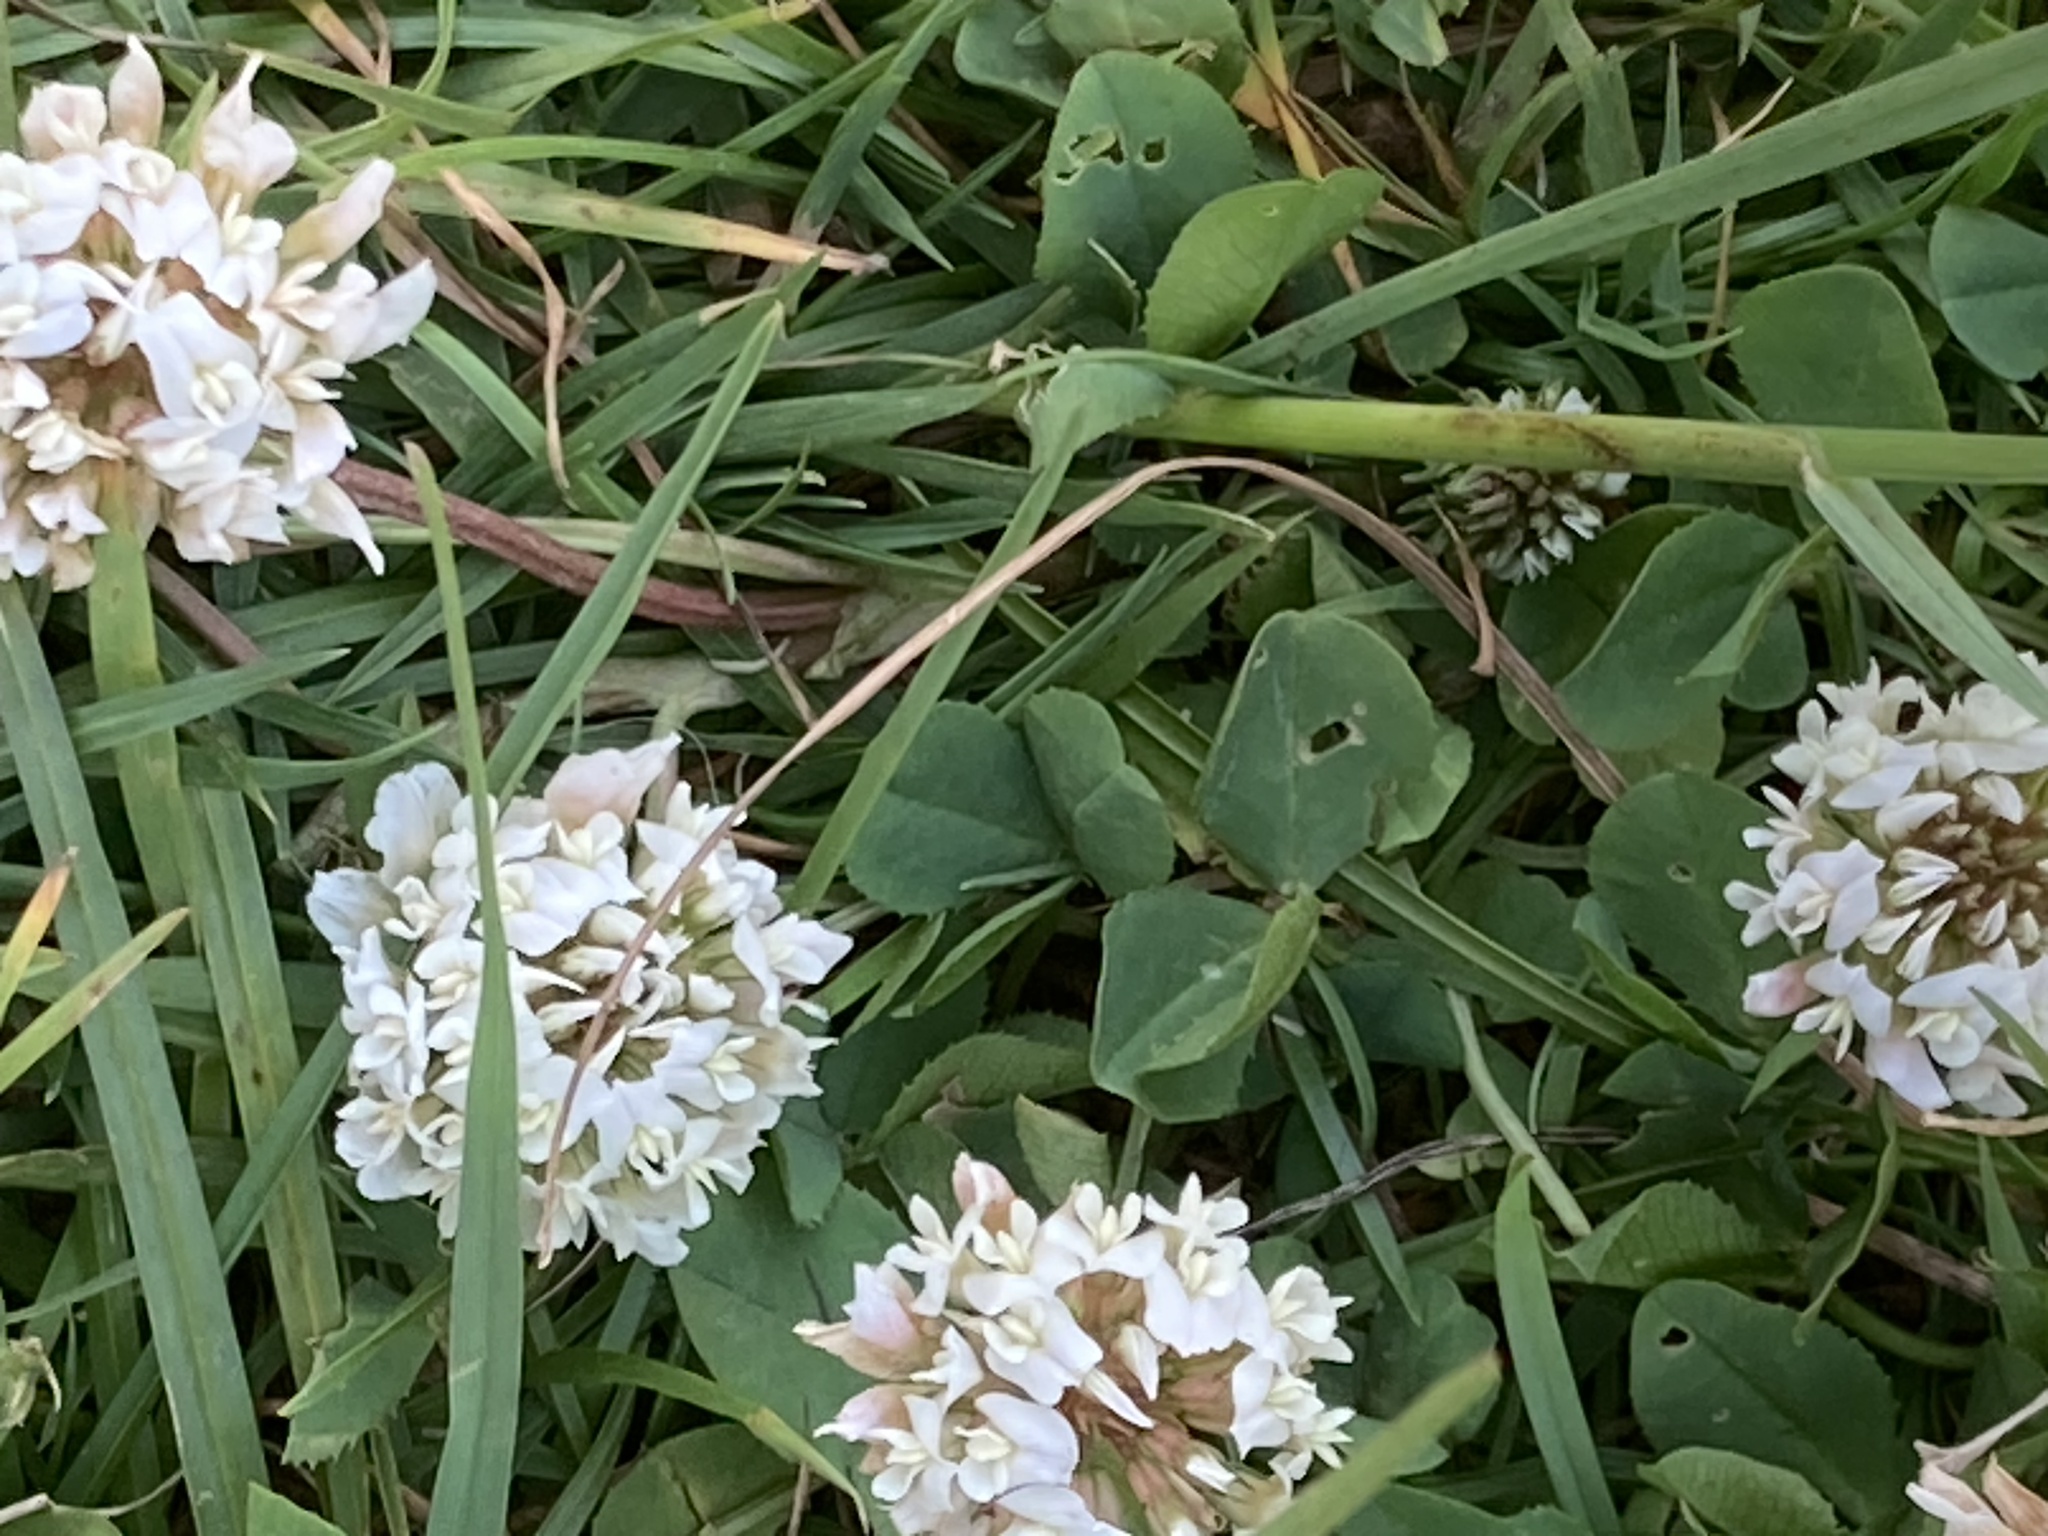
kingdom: Plantae
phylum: Tracheophyta
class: Magnoliopsida
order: Fabales
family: Fabaceae
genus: Trifolium
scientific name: Trifolium repens
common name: White clover
